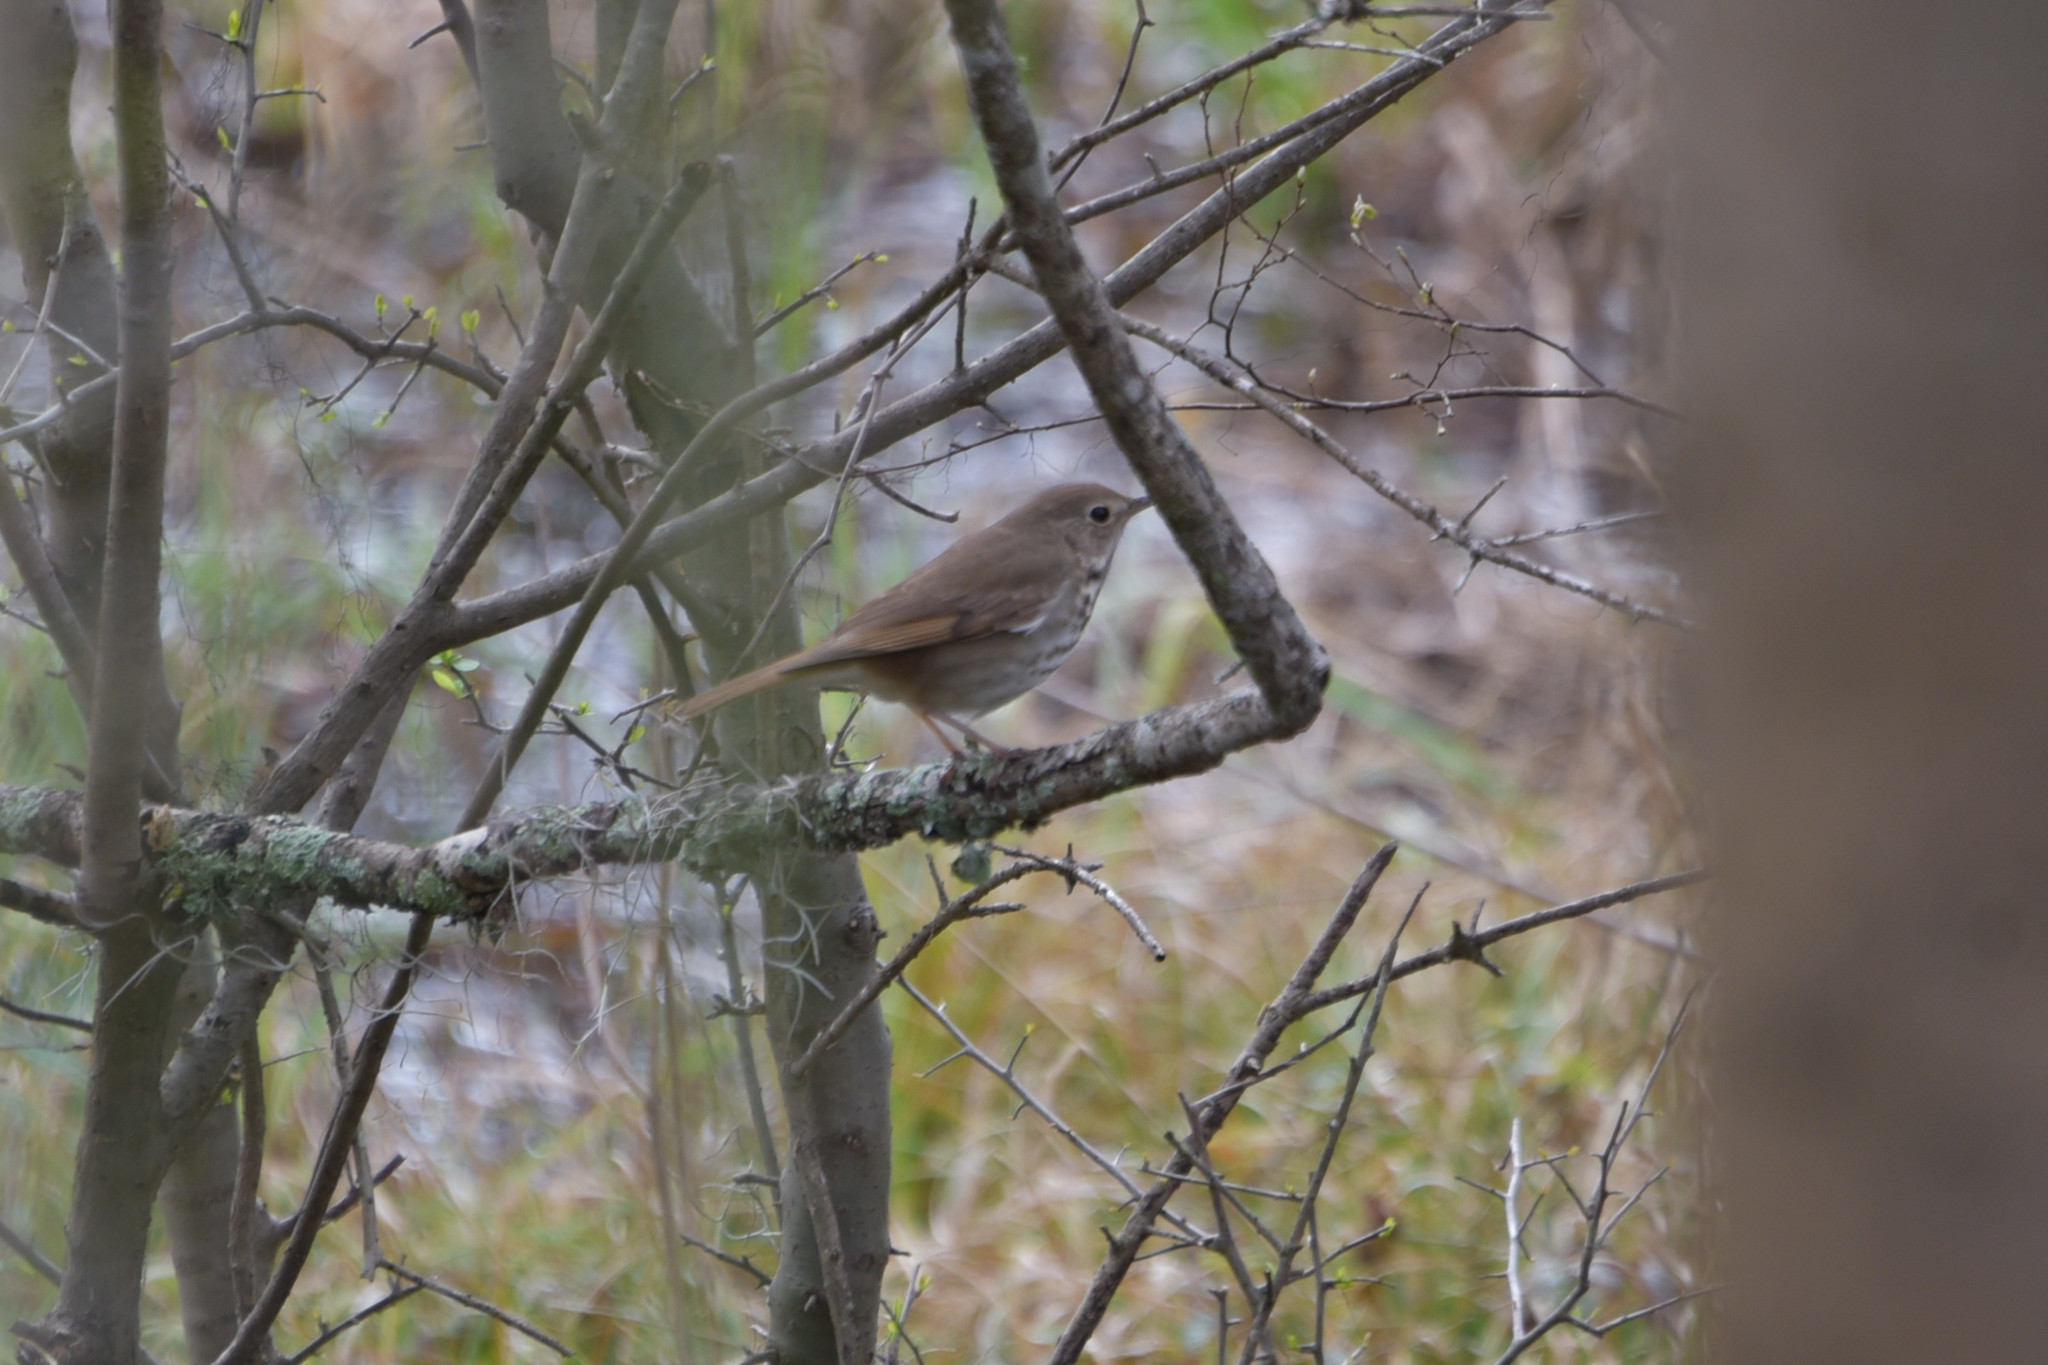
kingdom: Animalia
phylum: Chordata
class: Aves
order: Passeriformes
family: Turdidae
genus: Catharus
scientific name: Catharus guttatus
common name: Hermit thrush
